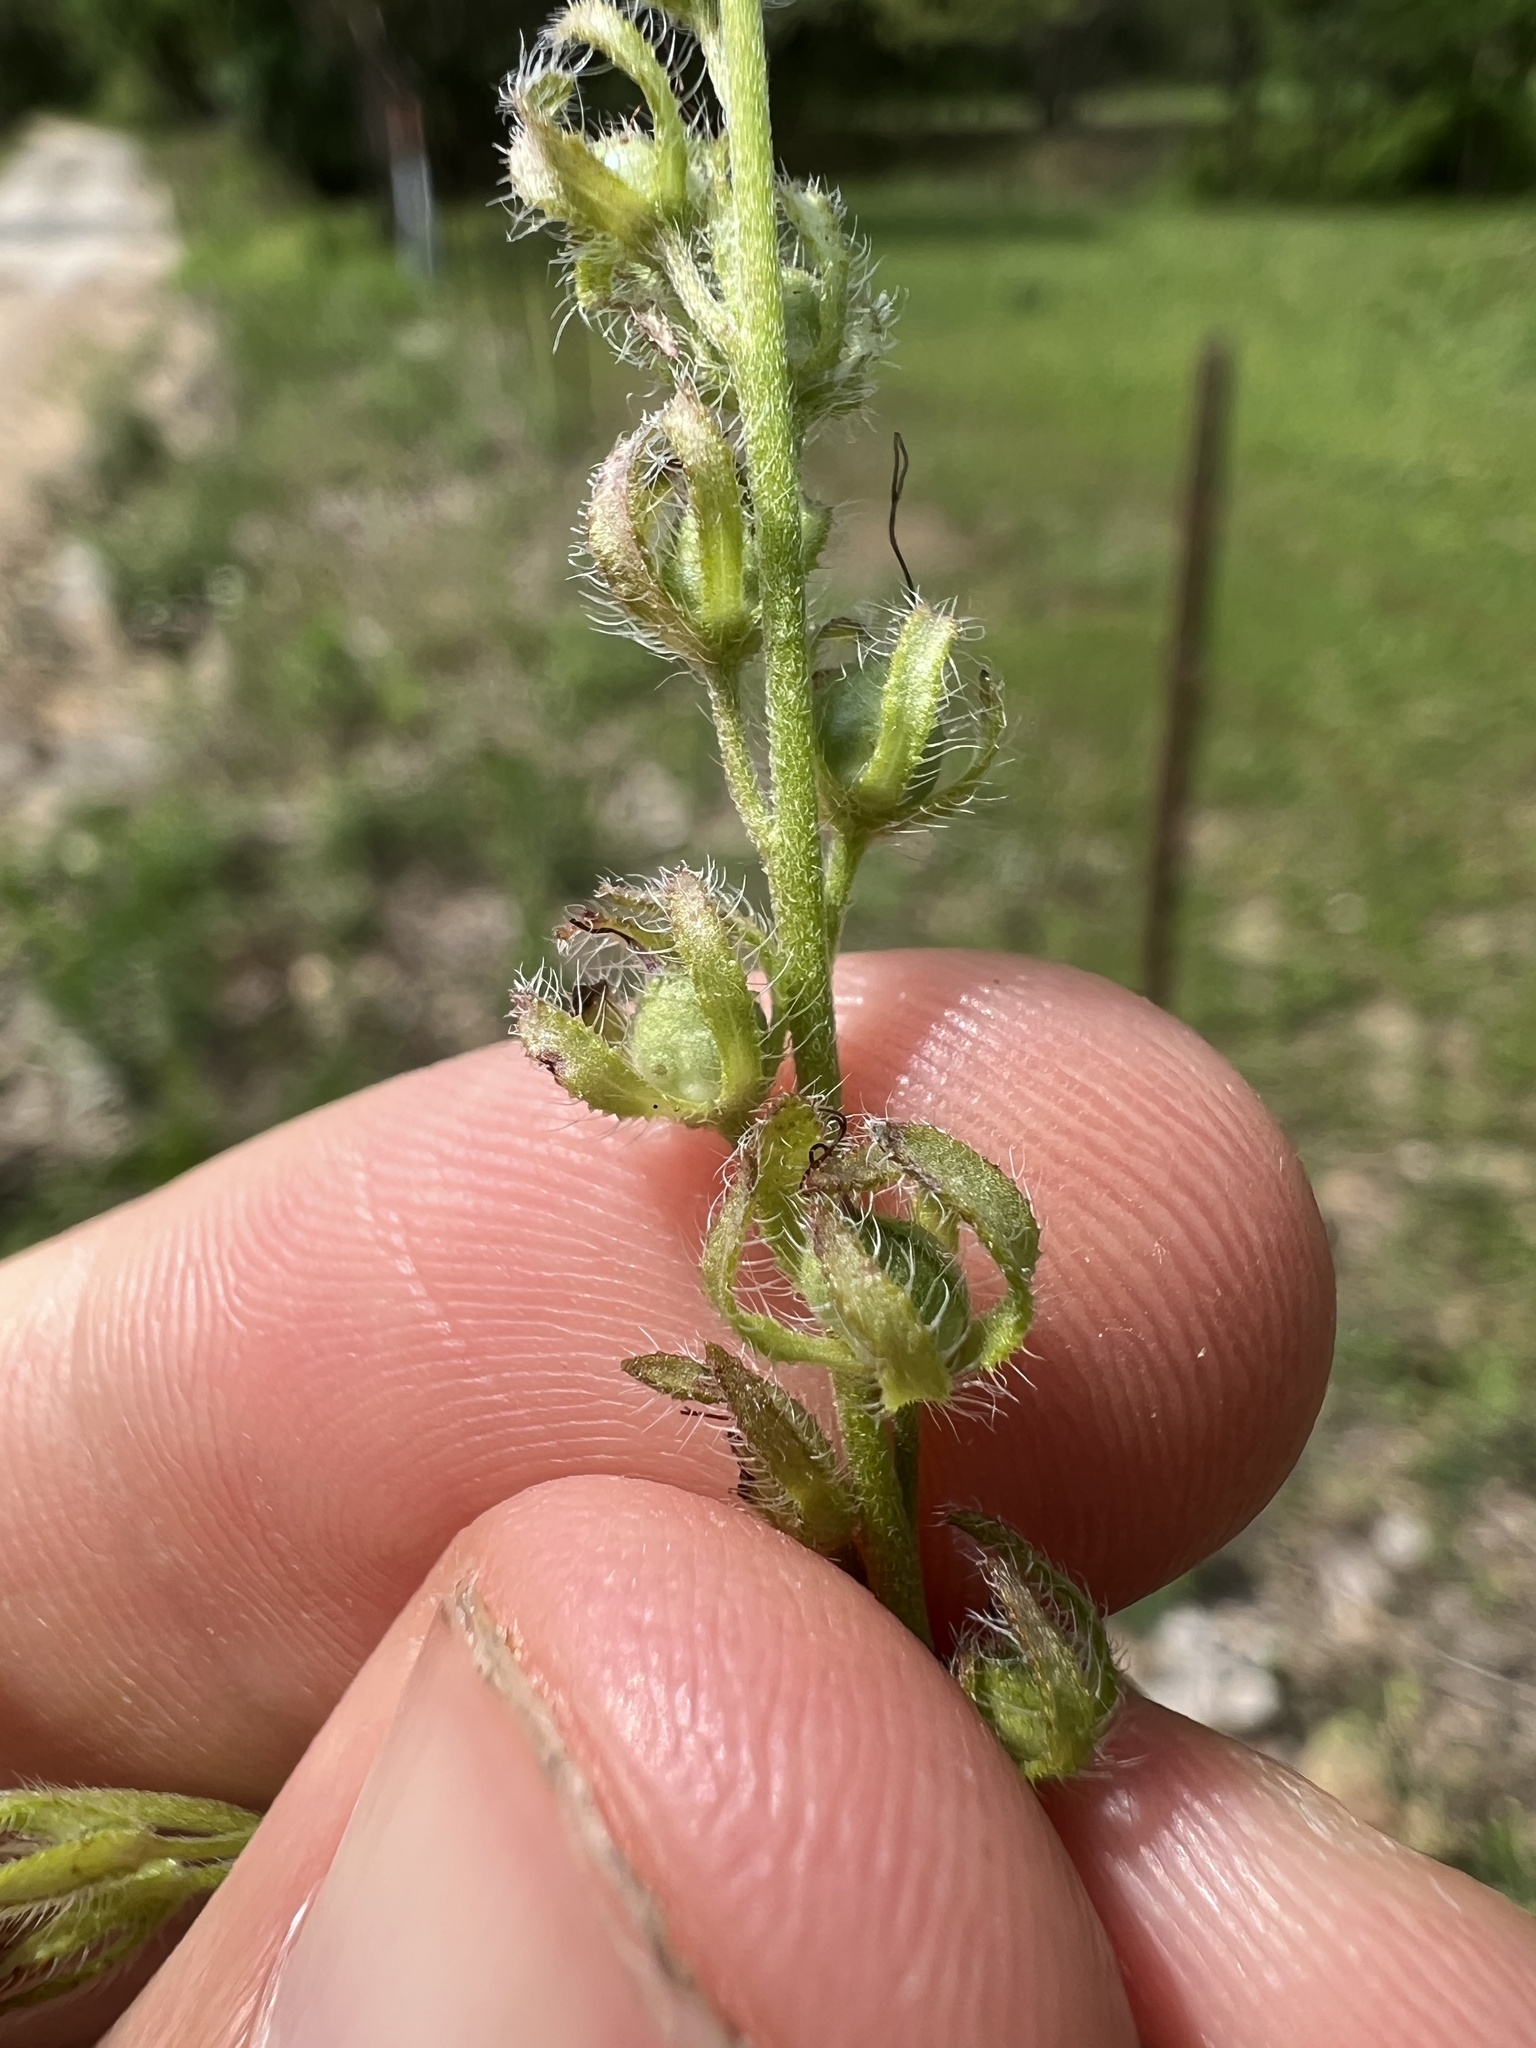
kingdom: Plantae
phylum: Tracheophyta
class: Magnoliopsida
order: Boraginales
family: Hydrophyllaceae
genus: Phacelia
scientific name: Phacelia gilioides
